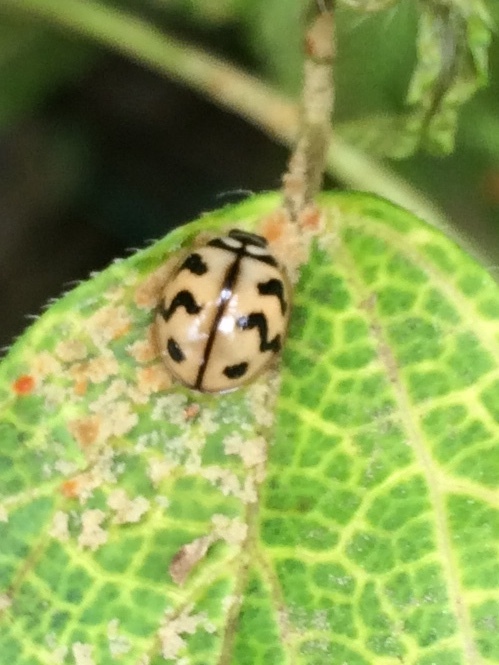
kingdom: Animalia
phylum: Arthropoda
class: Insecta
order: Coleoptera
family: Coccinellidae
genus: Cheilomenes
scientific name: Cheilomenes sexmaculata
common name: Ladybird beetle
